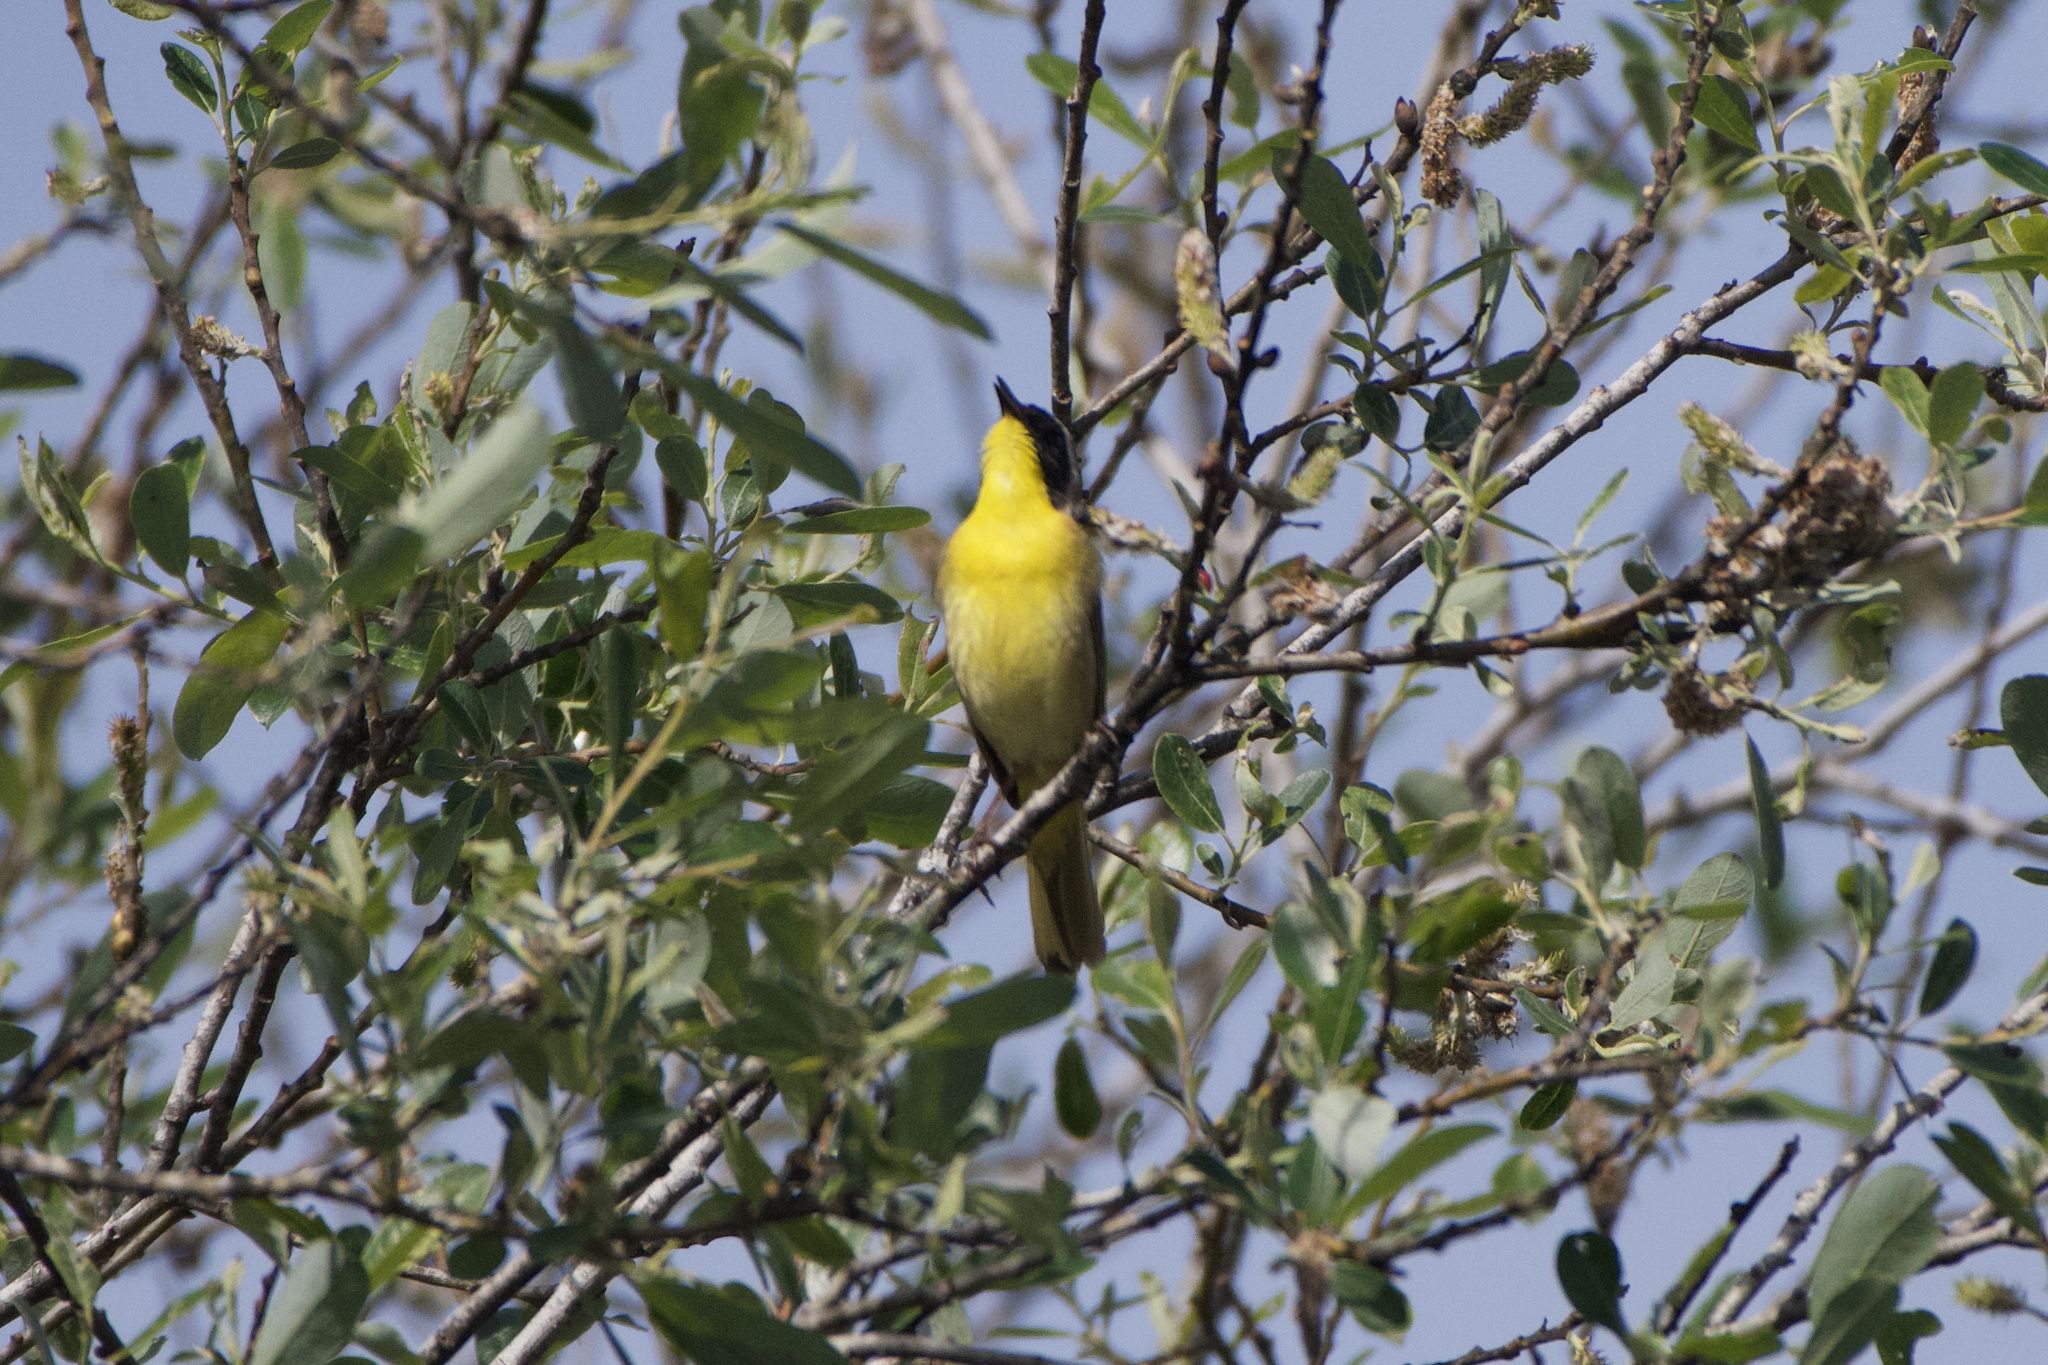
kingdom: Animalia
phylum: Chordata
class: Aves
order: Passeriformes
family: Parulidae
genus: Geothlypis
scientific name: Geothlypis trichas
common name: Common yellowthroat
